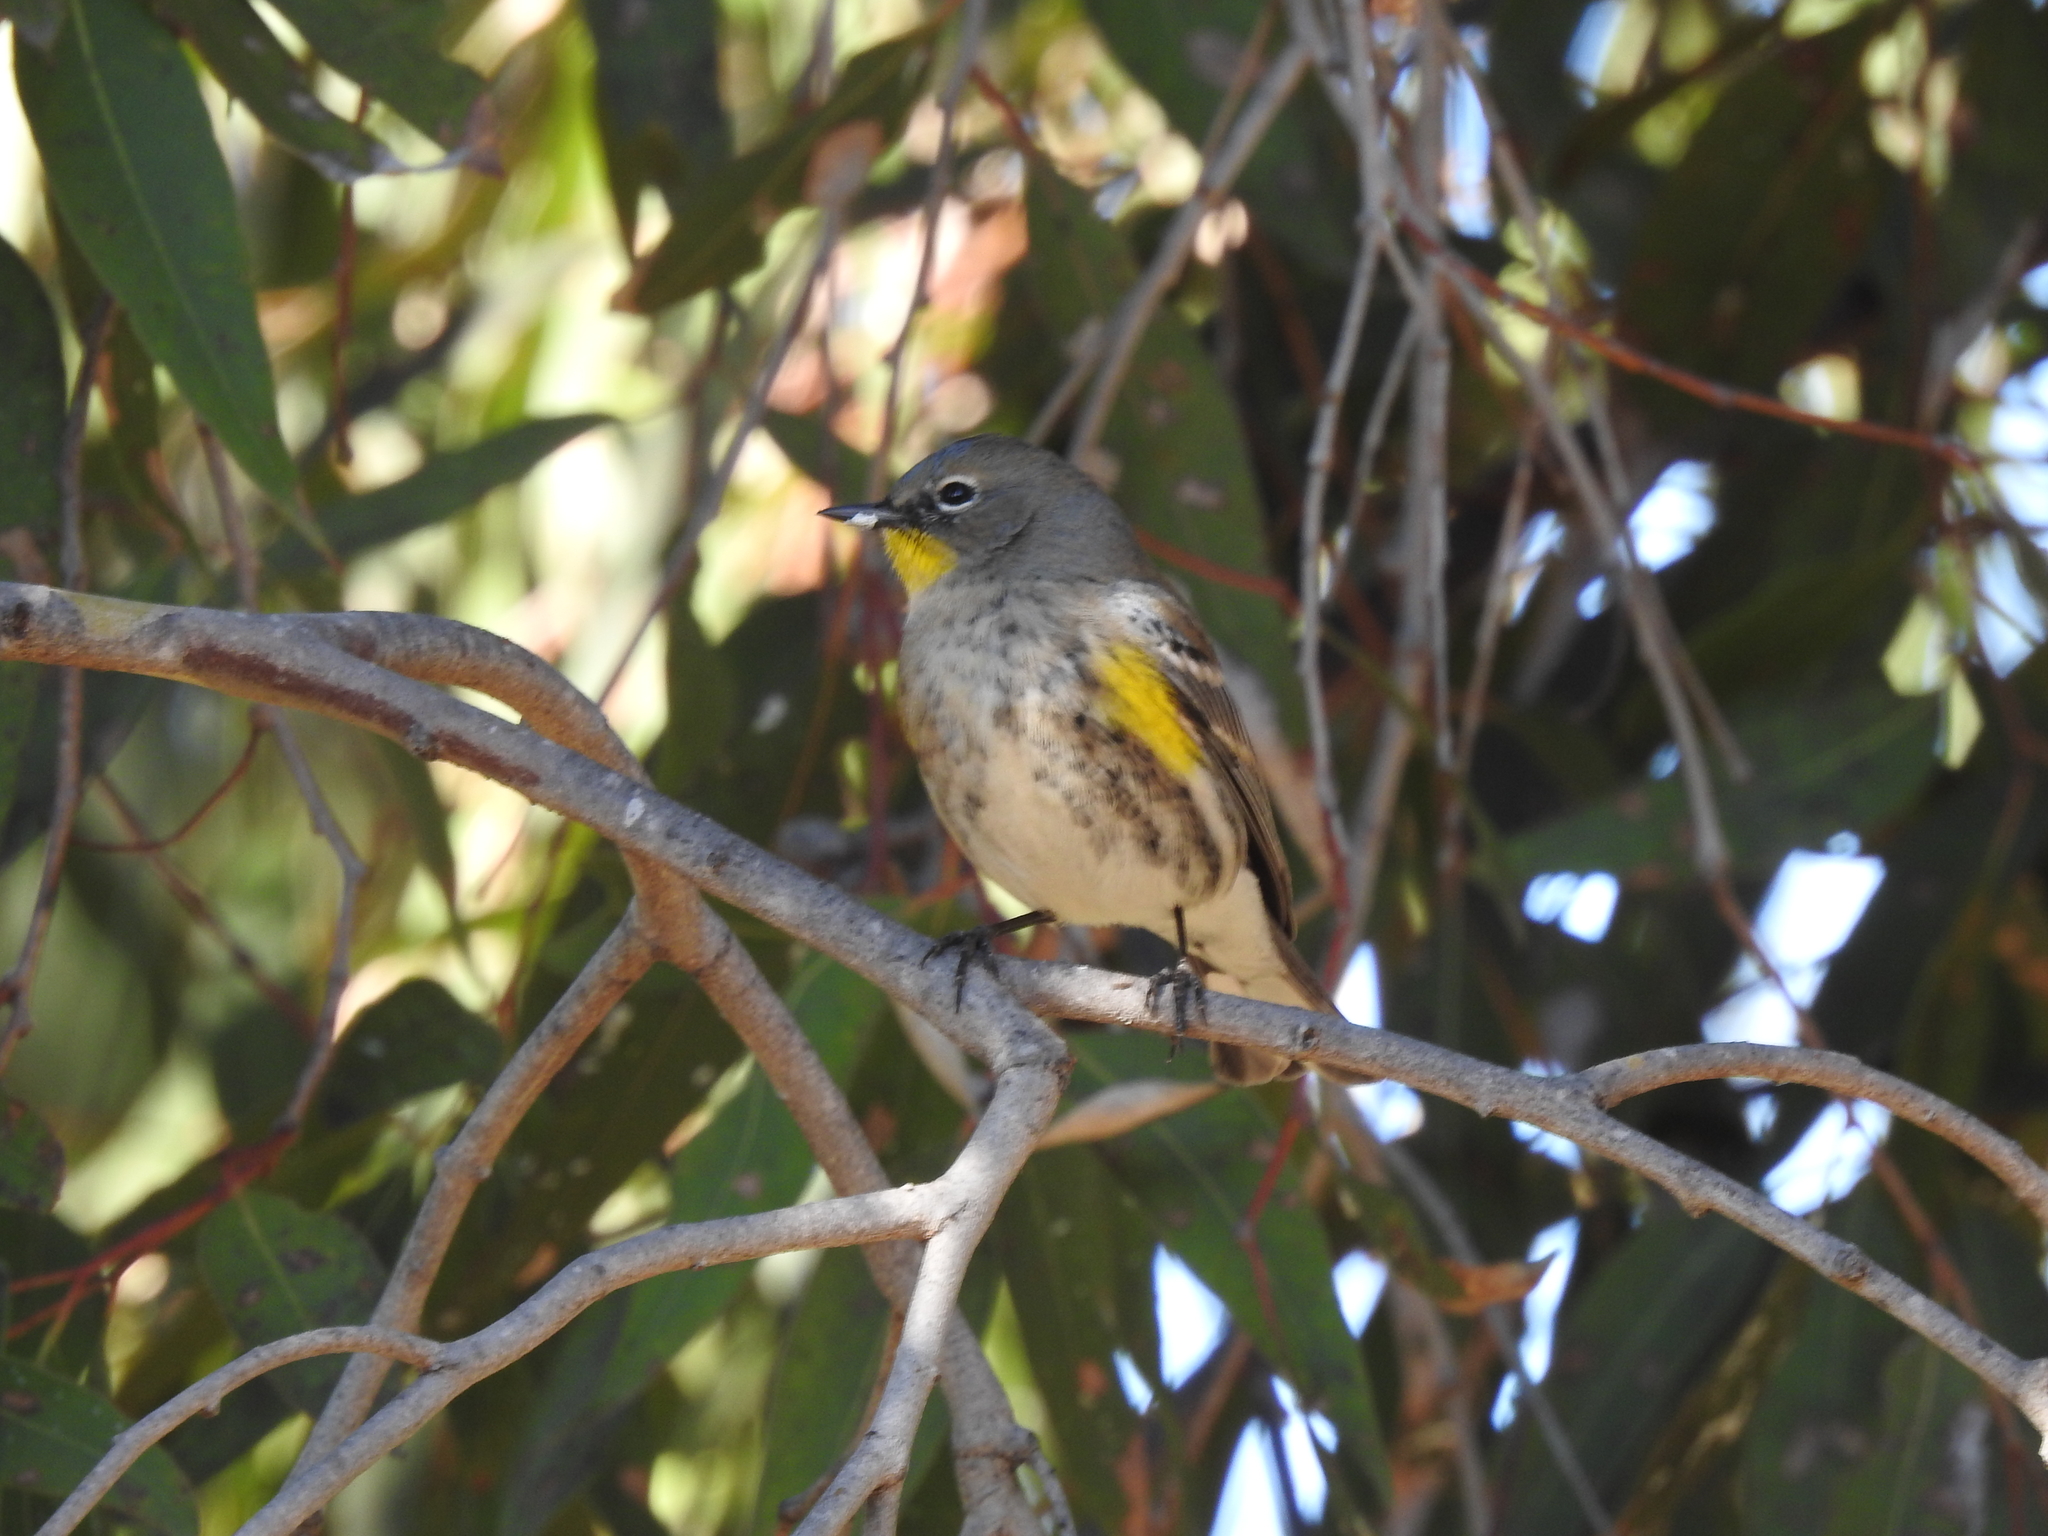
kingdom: Animalia
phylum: Chordata
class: Aves
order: Passeriformes
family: Parulidae
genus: Setophaga
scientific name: Setophaga auduboni
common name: Audubon's warbler
